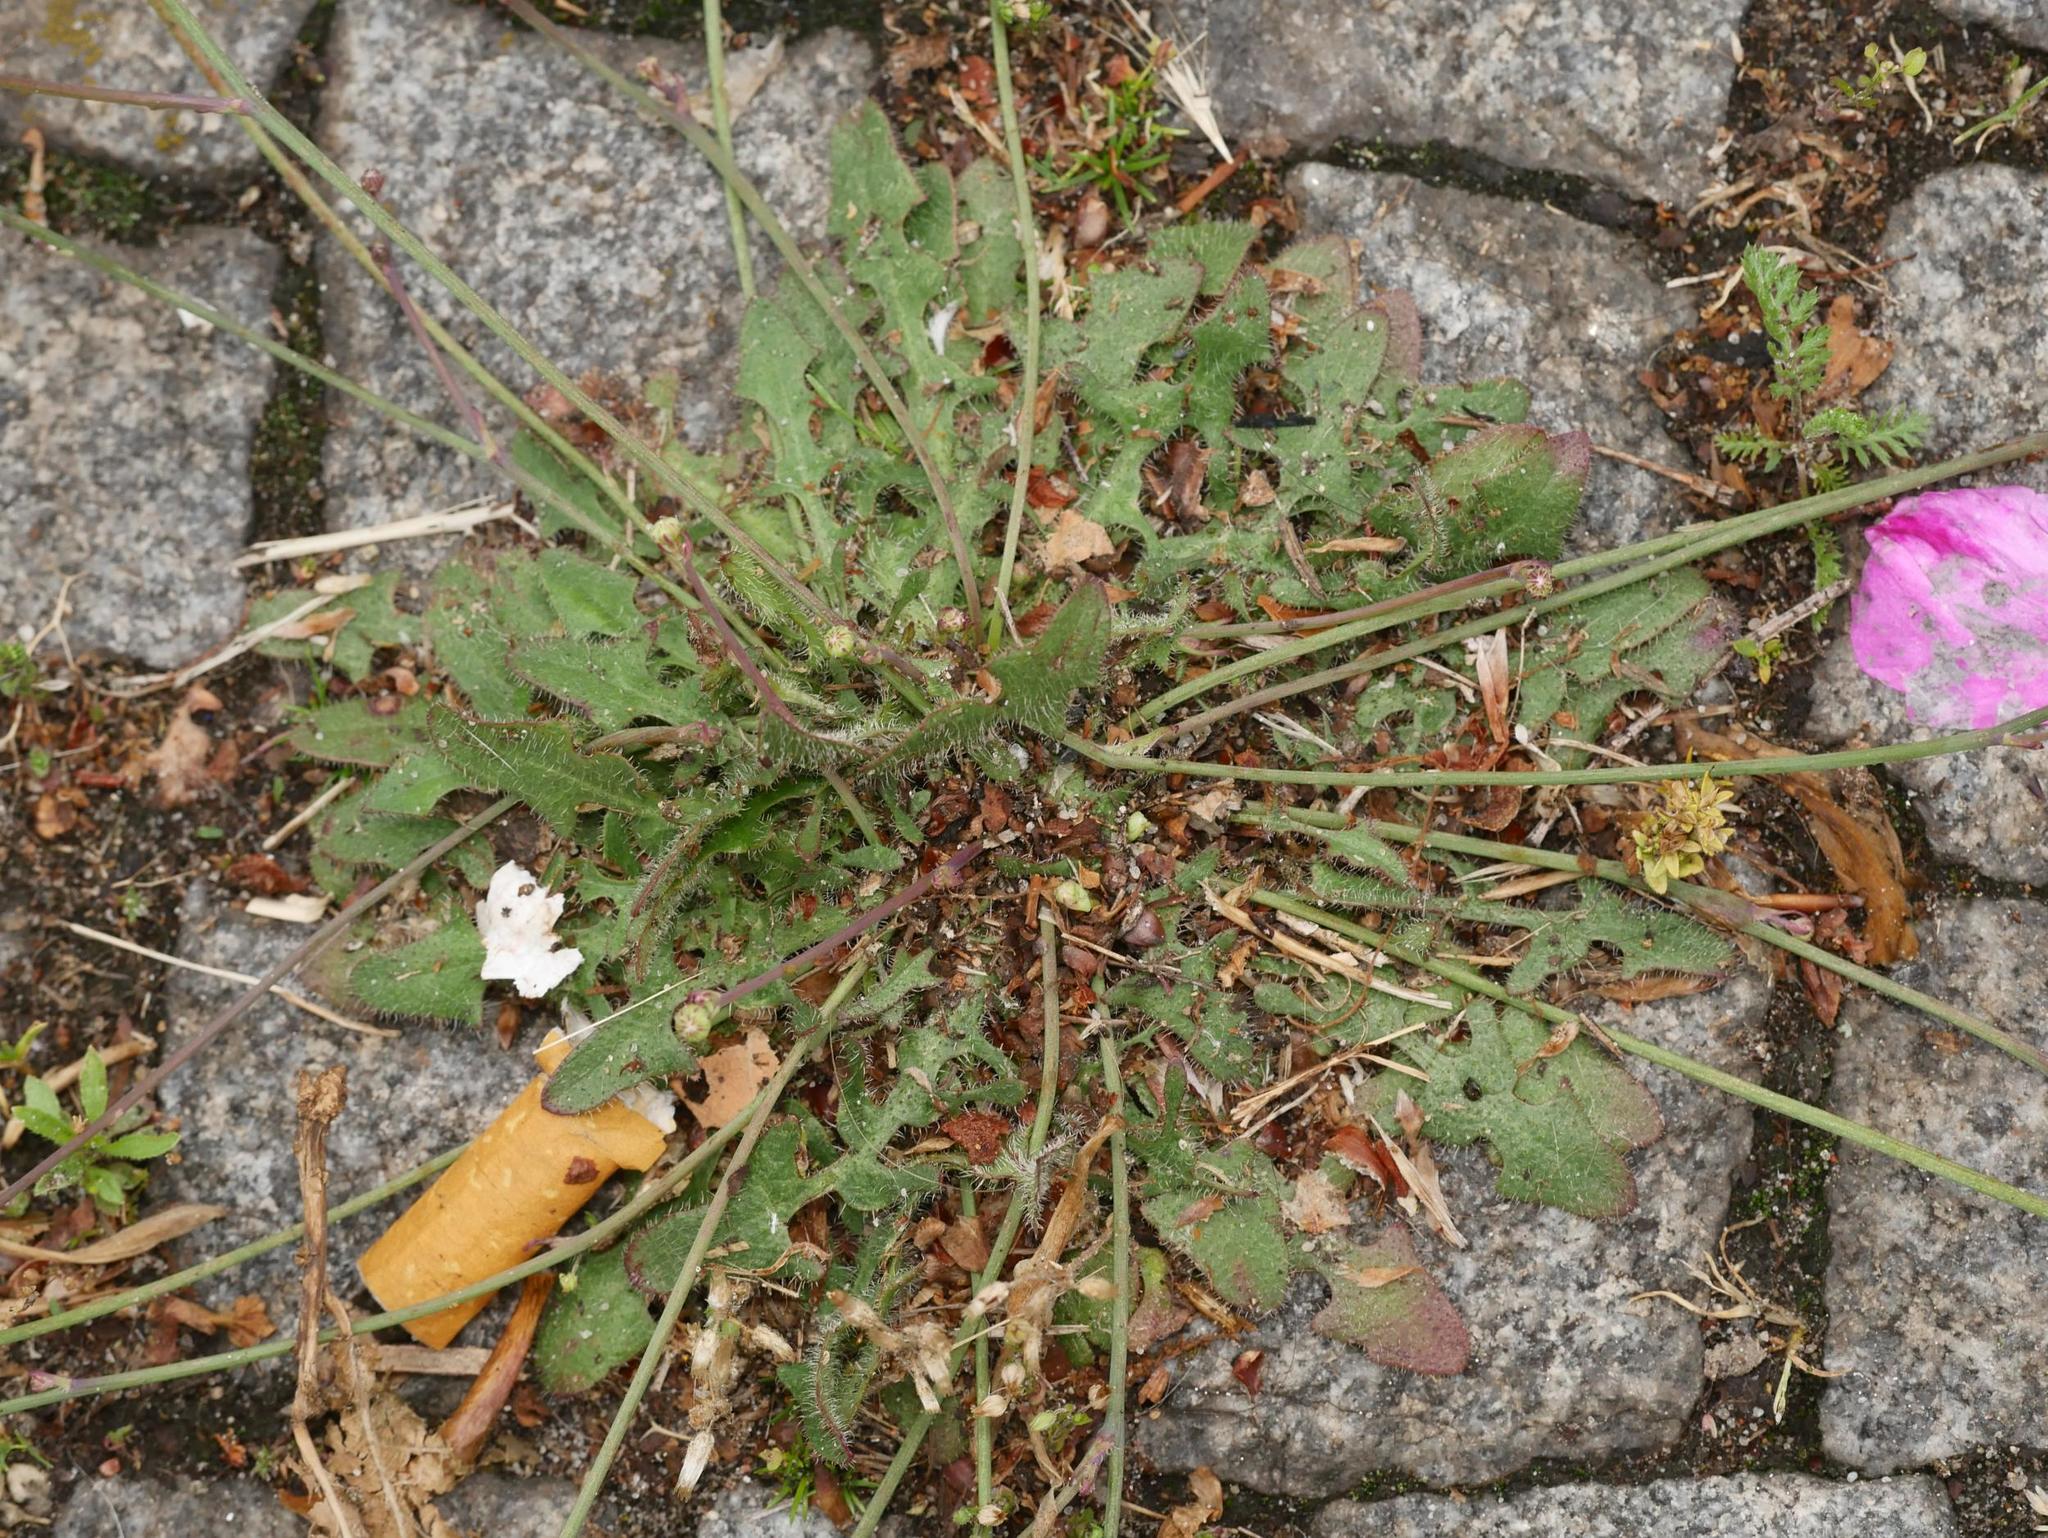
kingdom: Plantae
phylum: Tracheophyta
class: Magnoliopsida
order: Asterales
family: Asteraceae
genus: Hypochaeris
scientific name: Hypochaeris radicata
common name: Flatweed
